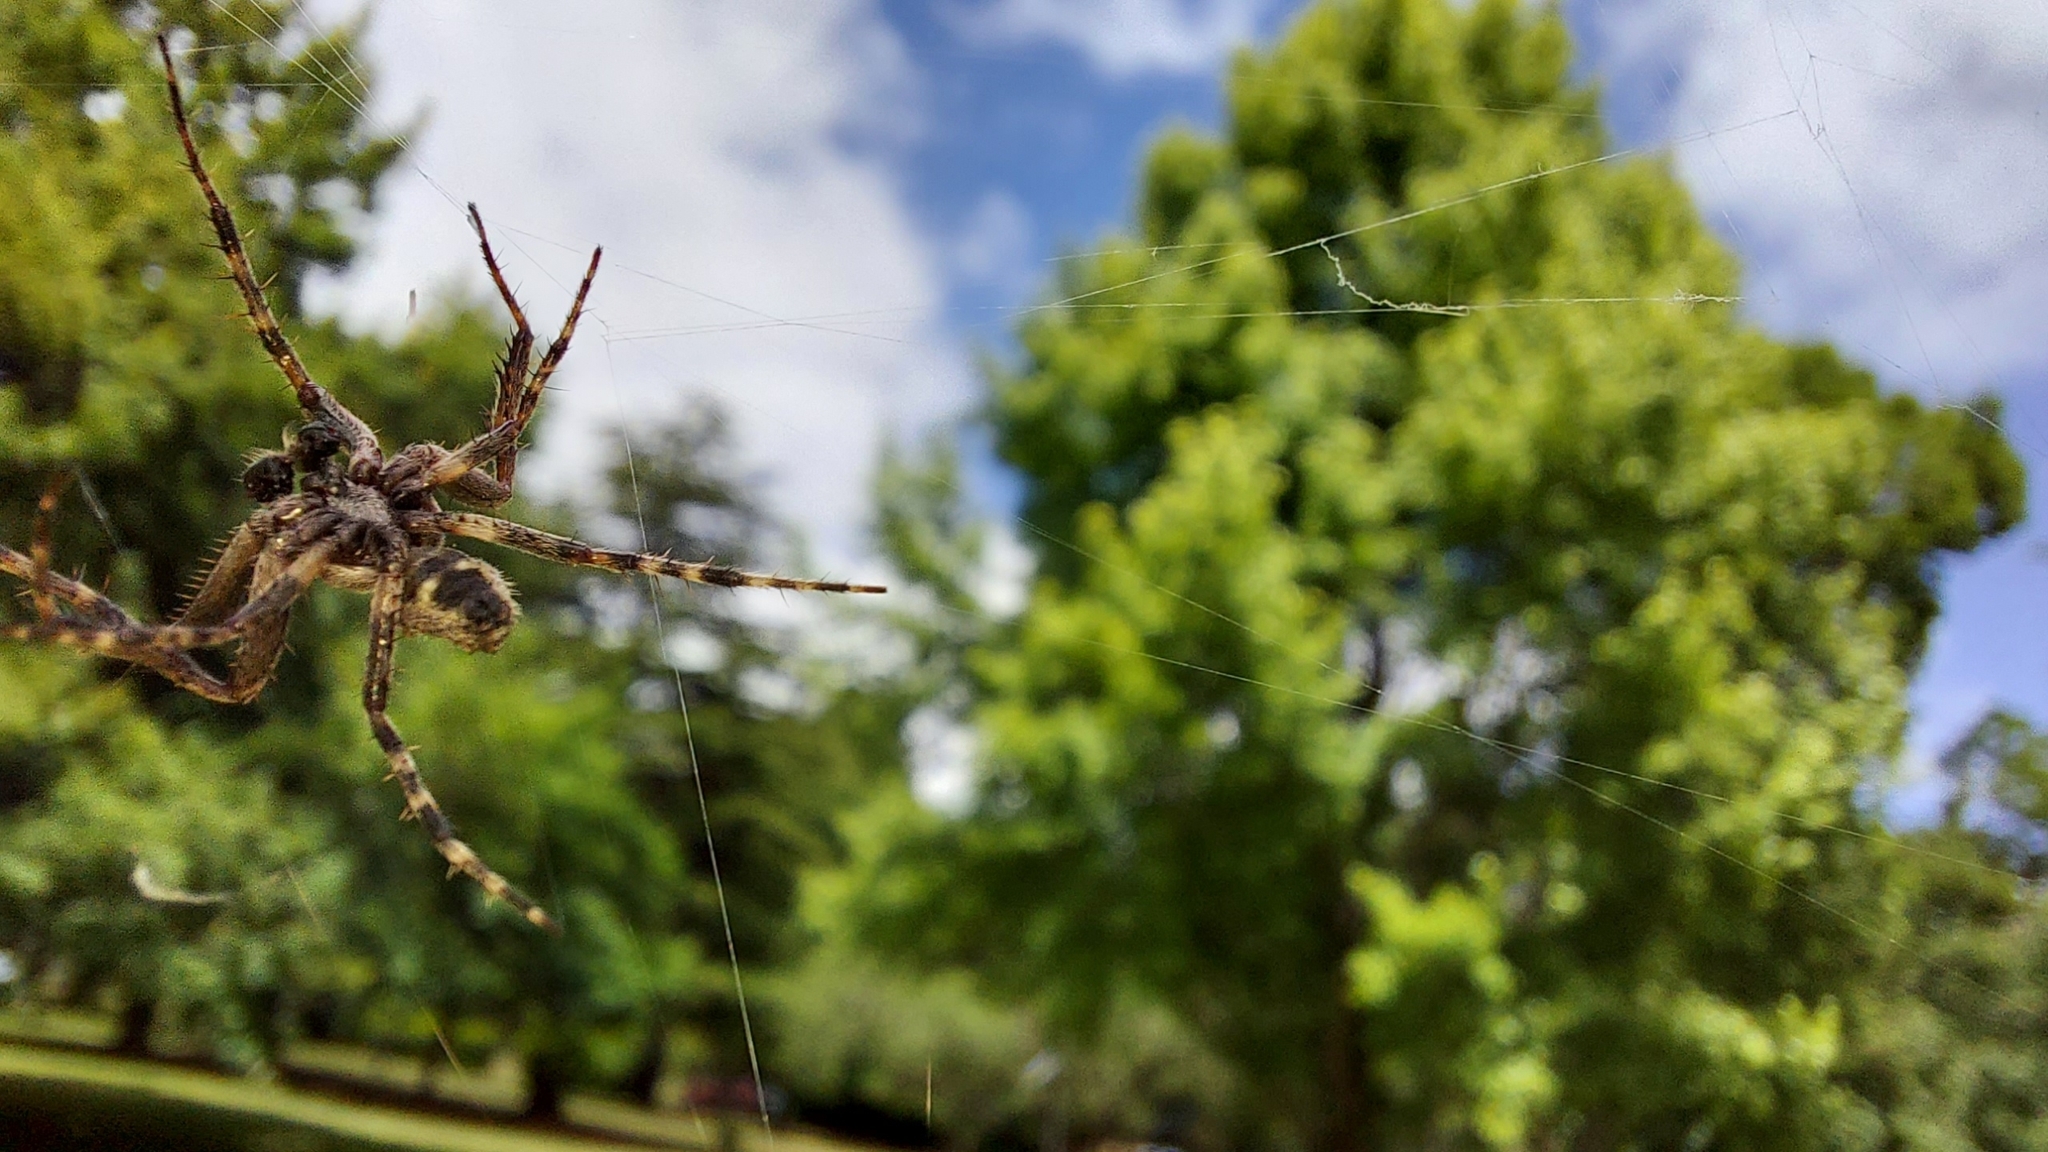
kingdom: Animalia
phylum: Arthropoda
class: Arachnida
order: Araneae
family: Araneidae
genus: Eriophora
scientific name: Eriophora pustulosa
